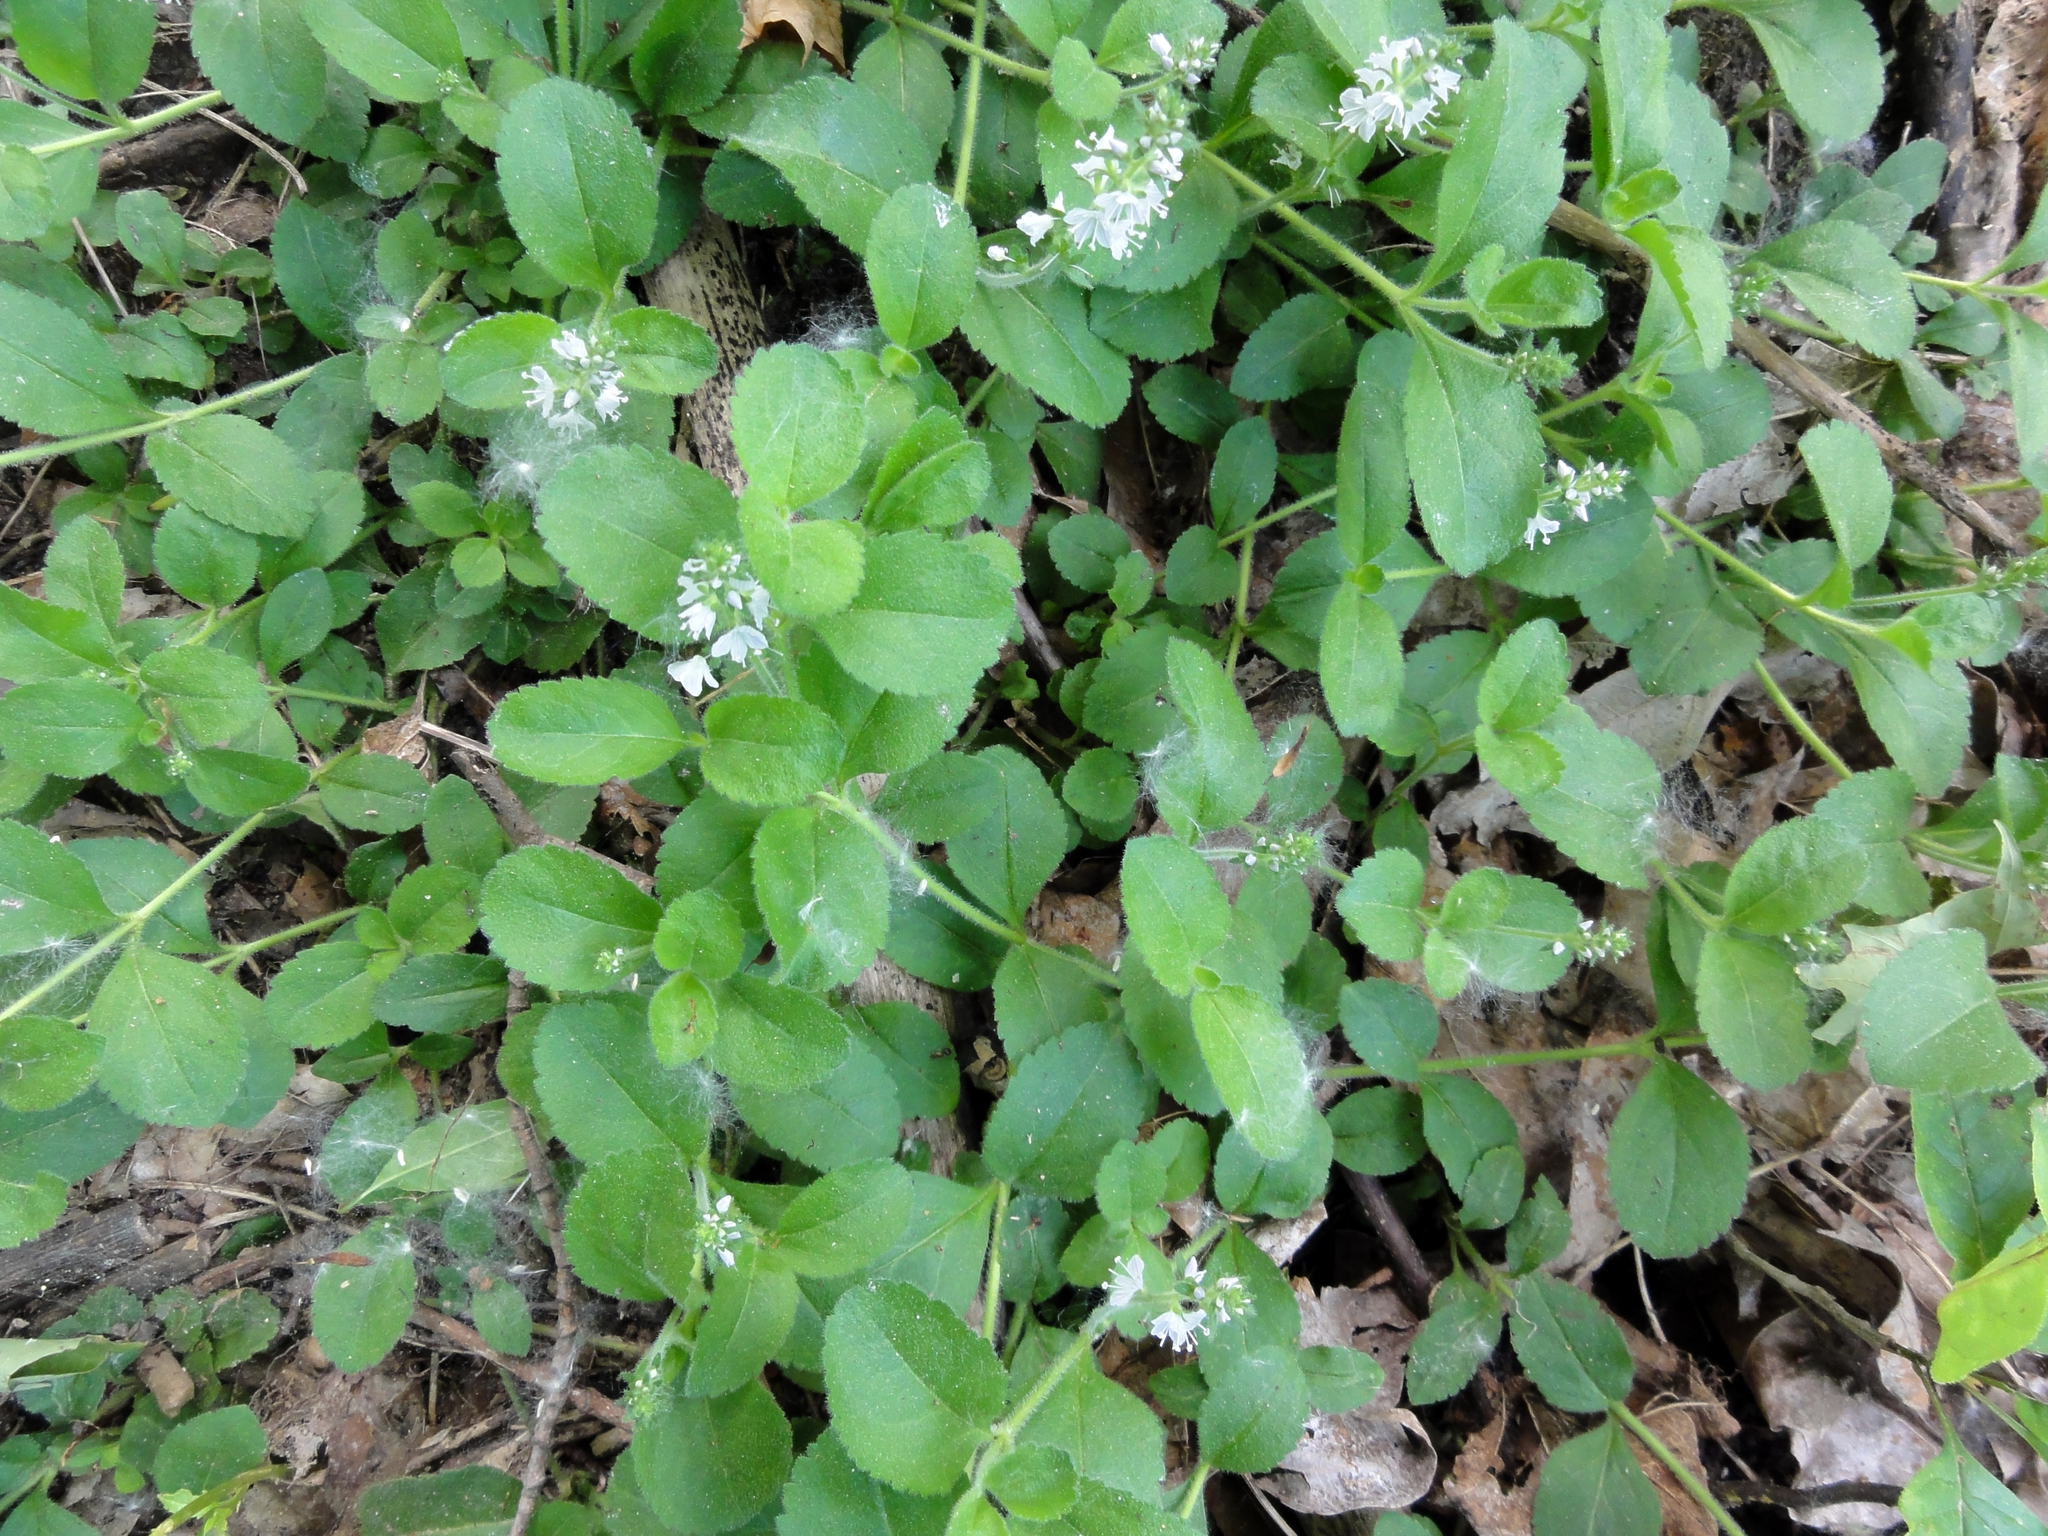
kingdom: Plantae
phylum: Tracheophyta
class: Magnoliopsida
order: Lamiales
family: Plantaginaceae
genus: Veronica
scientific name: Veronica officinalis
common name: Common speedwell
